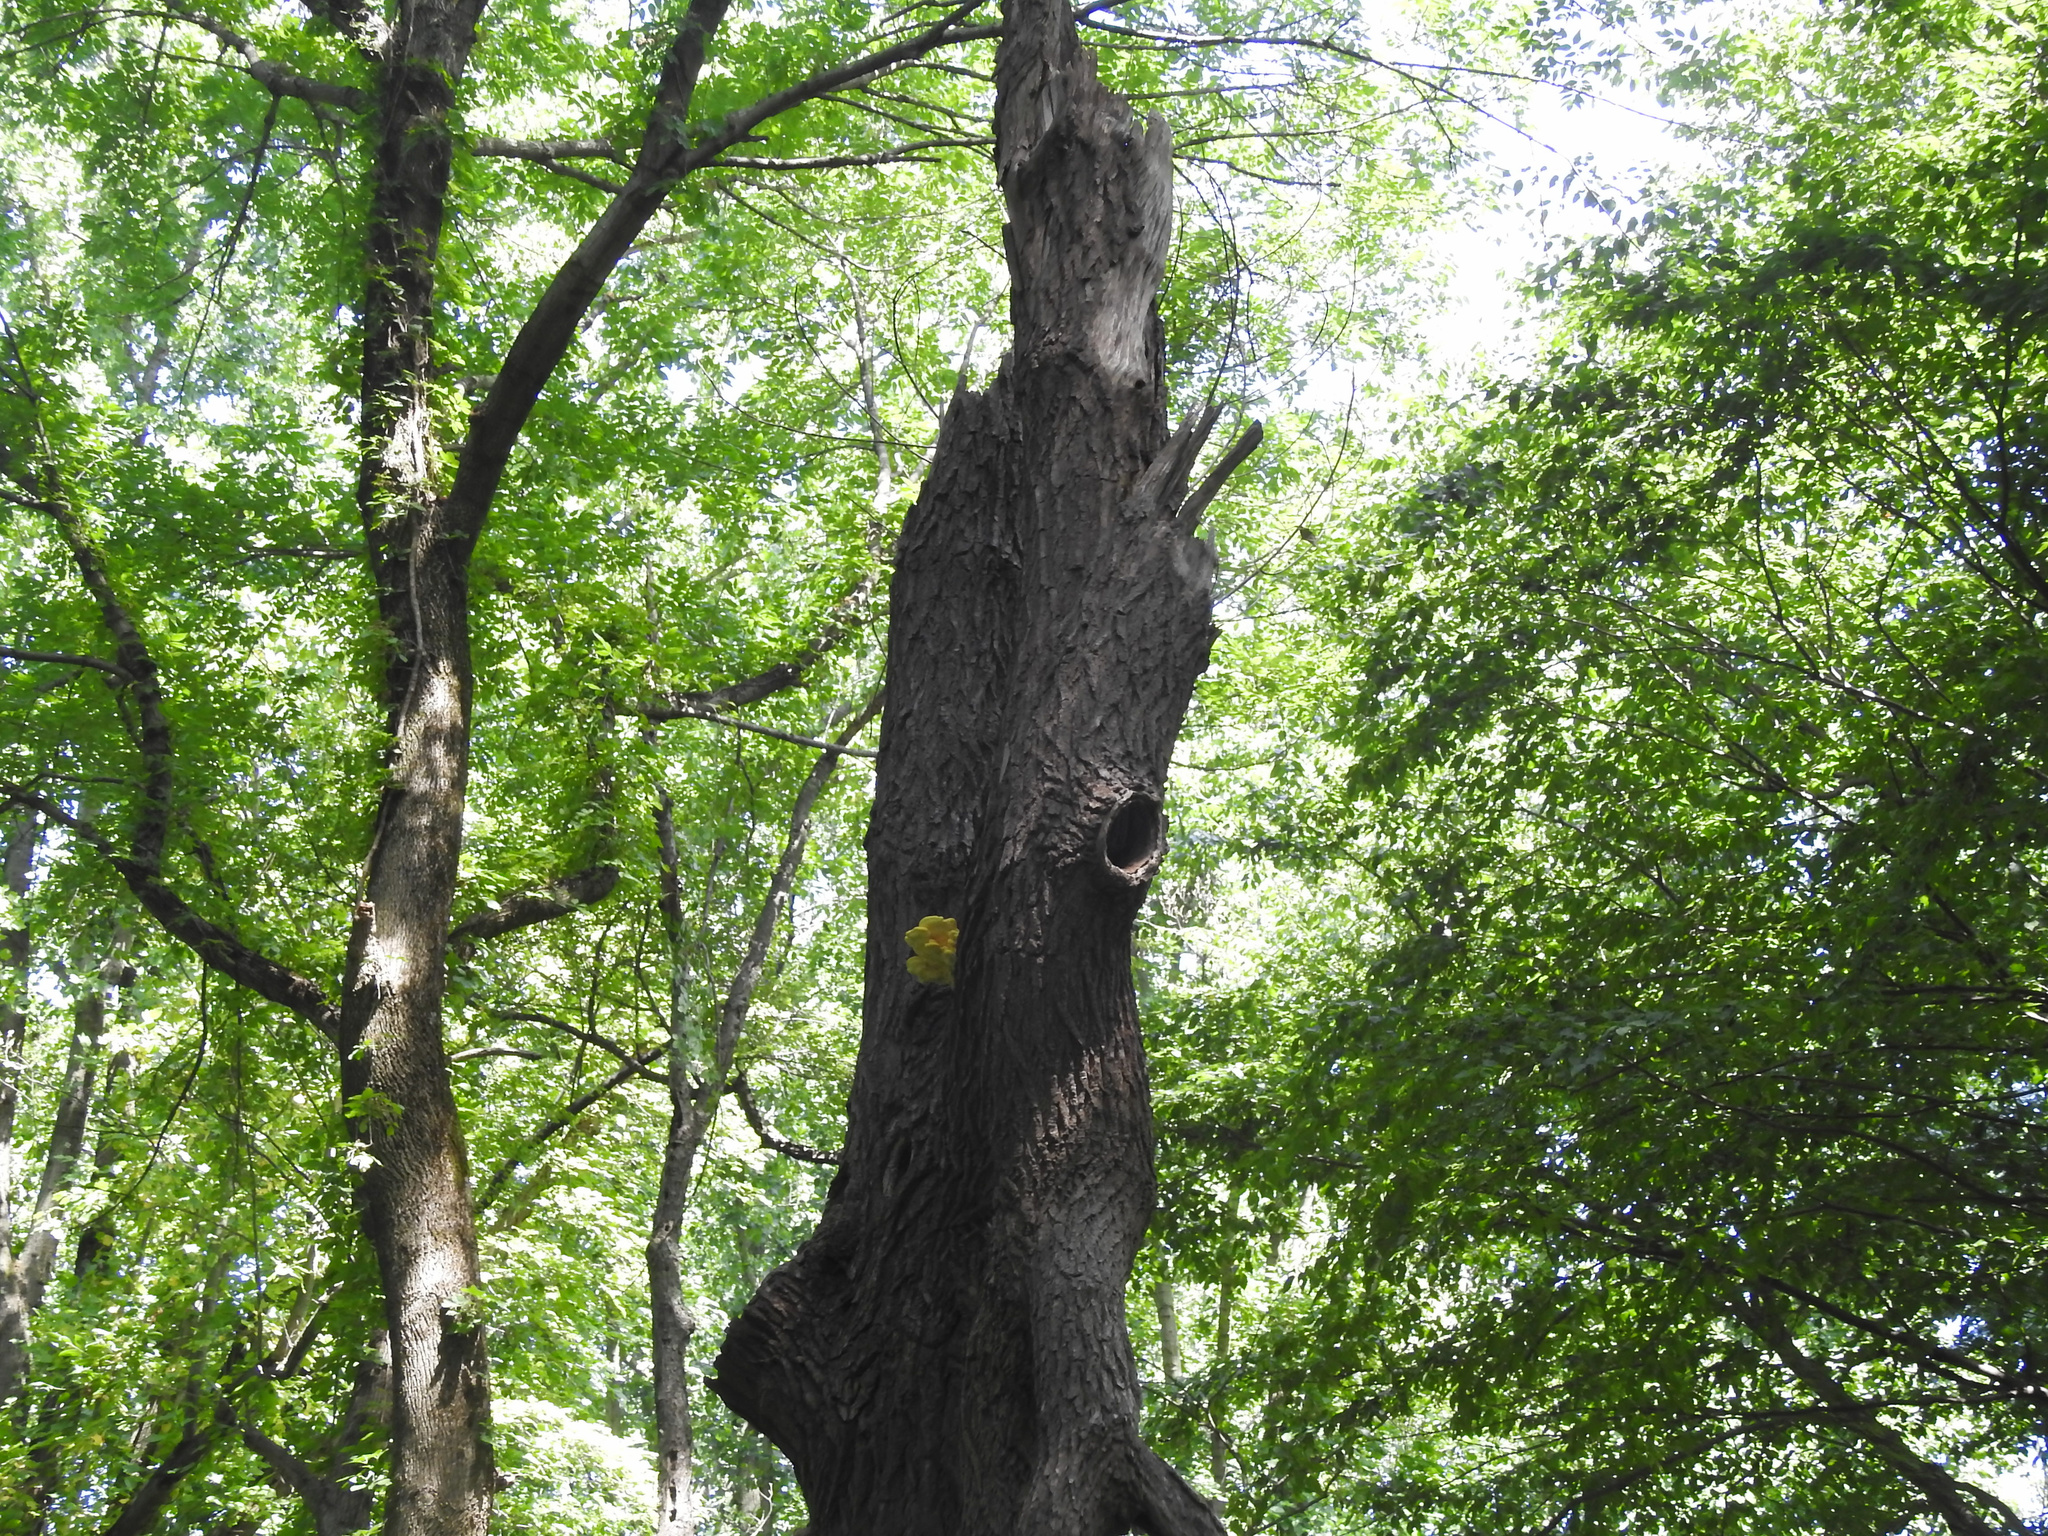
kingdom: Fungi
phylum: Basidiomycota
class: Agaricomycetes
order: Polyporales
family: Laetiporaceae
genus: Laetiporus
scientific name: Laetiporus sulphureus
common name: Chicken of the woods
